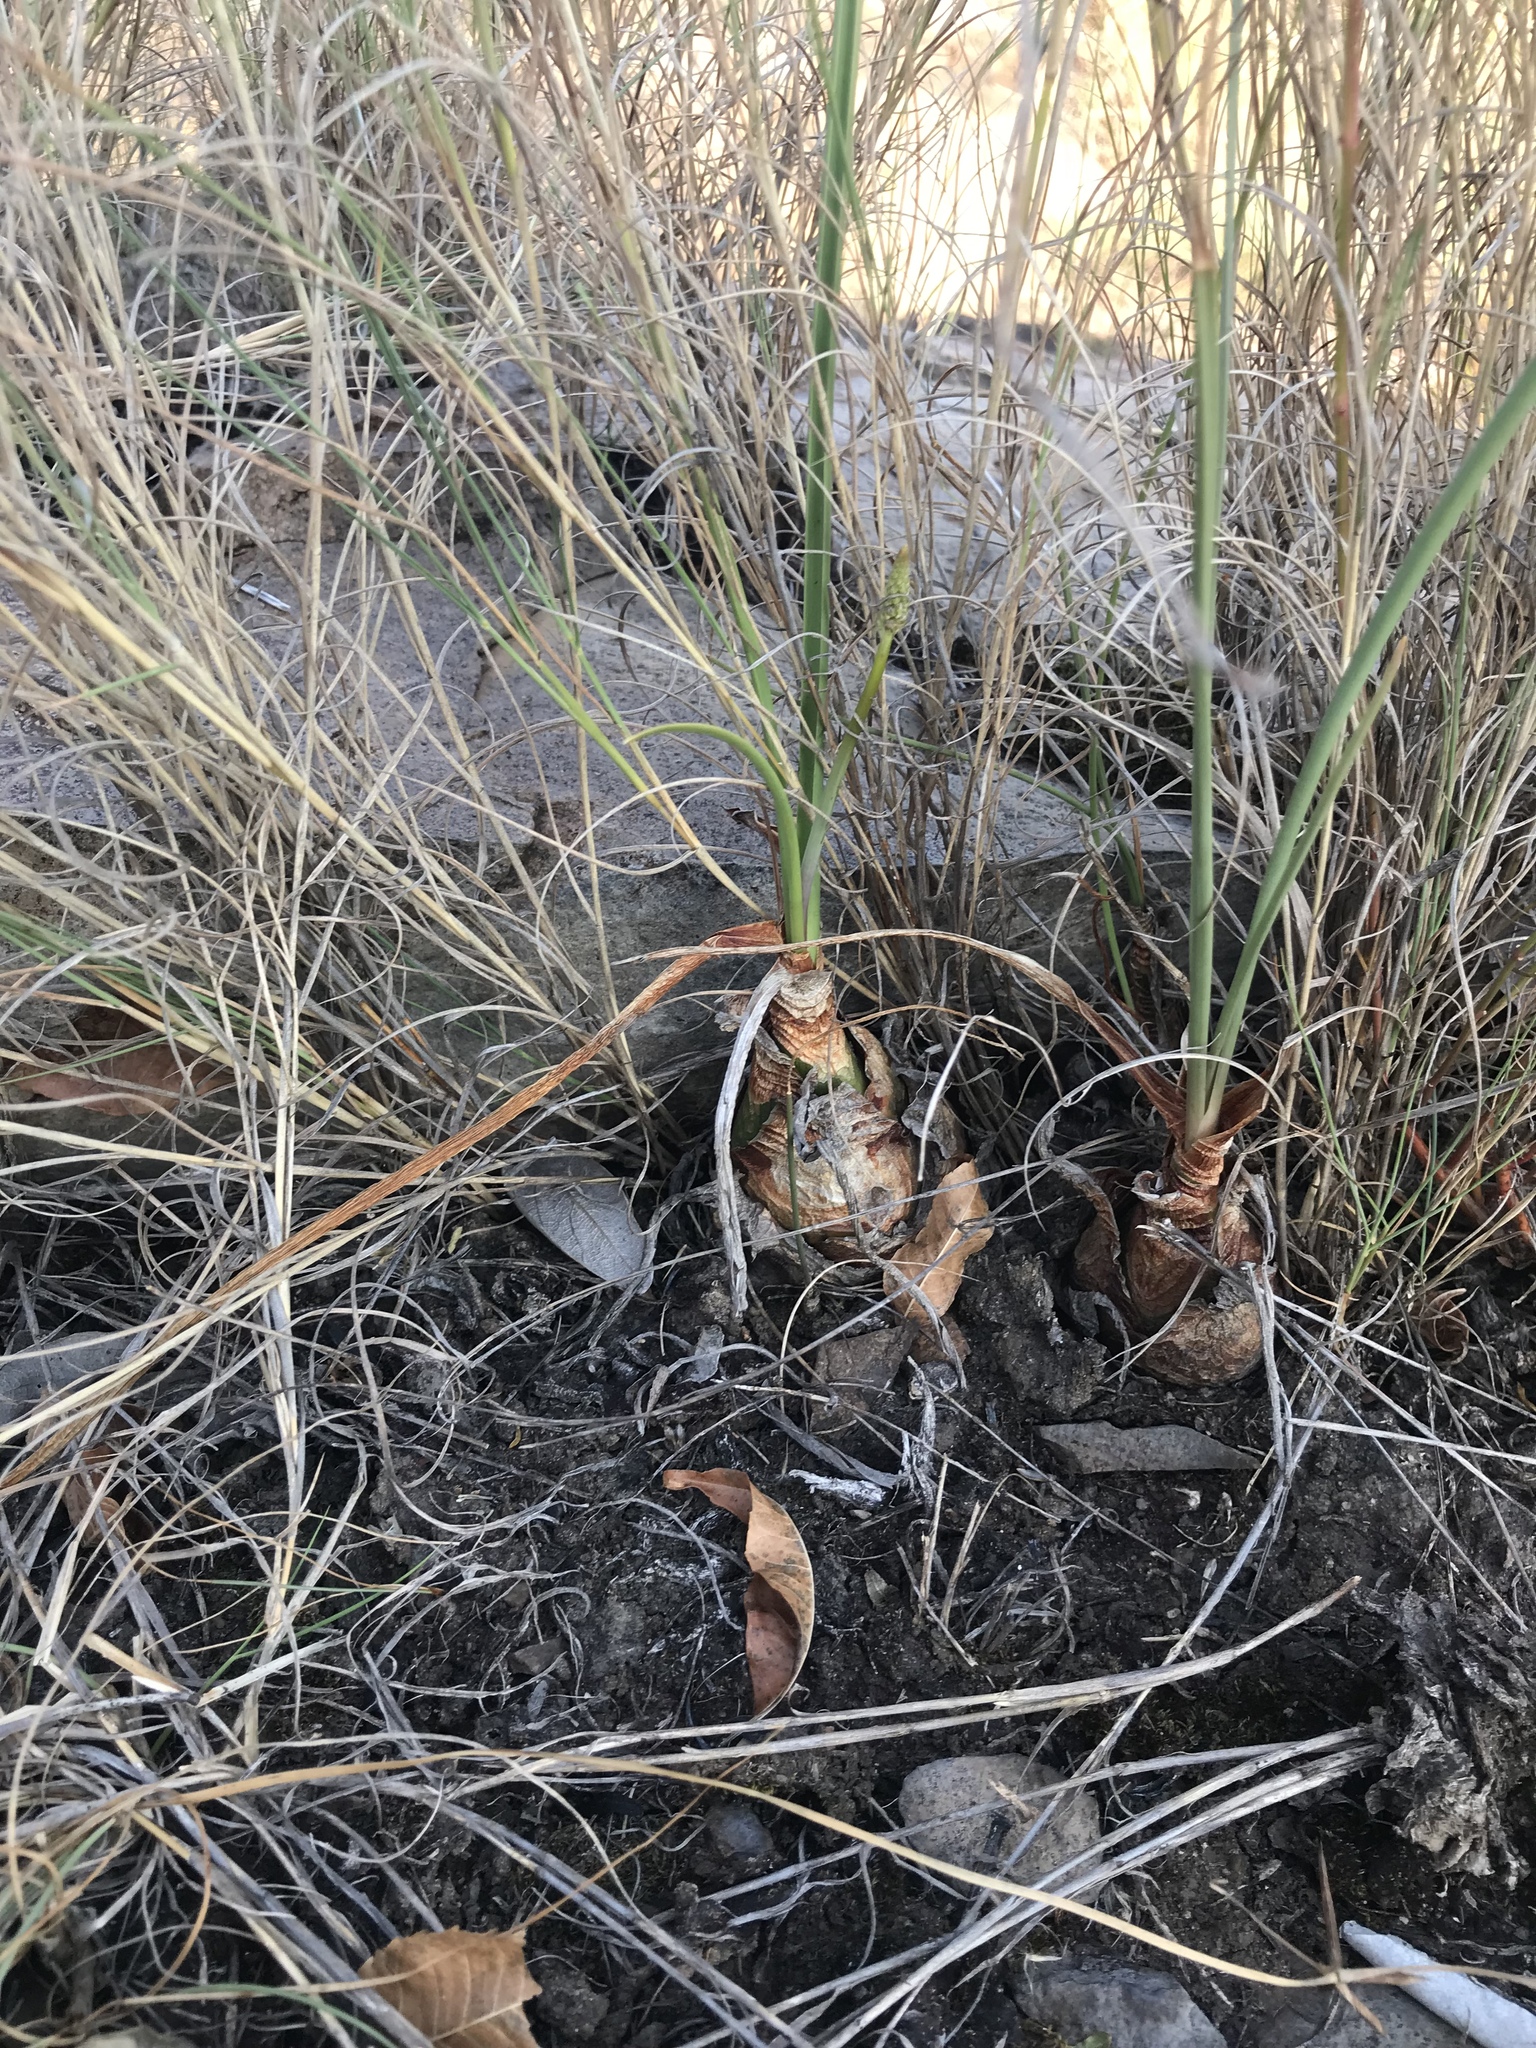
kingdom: Plantae
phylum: Tracheophyta
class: Liliopsida
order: Asparagales
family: Asparagaceae
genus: Drimia
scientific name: Drimia delagoensis
